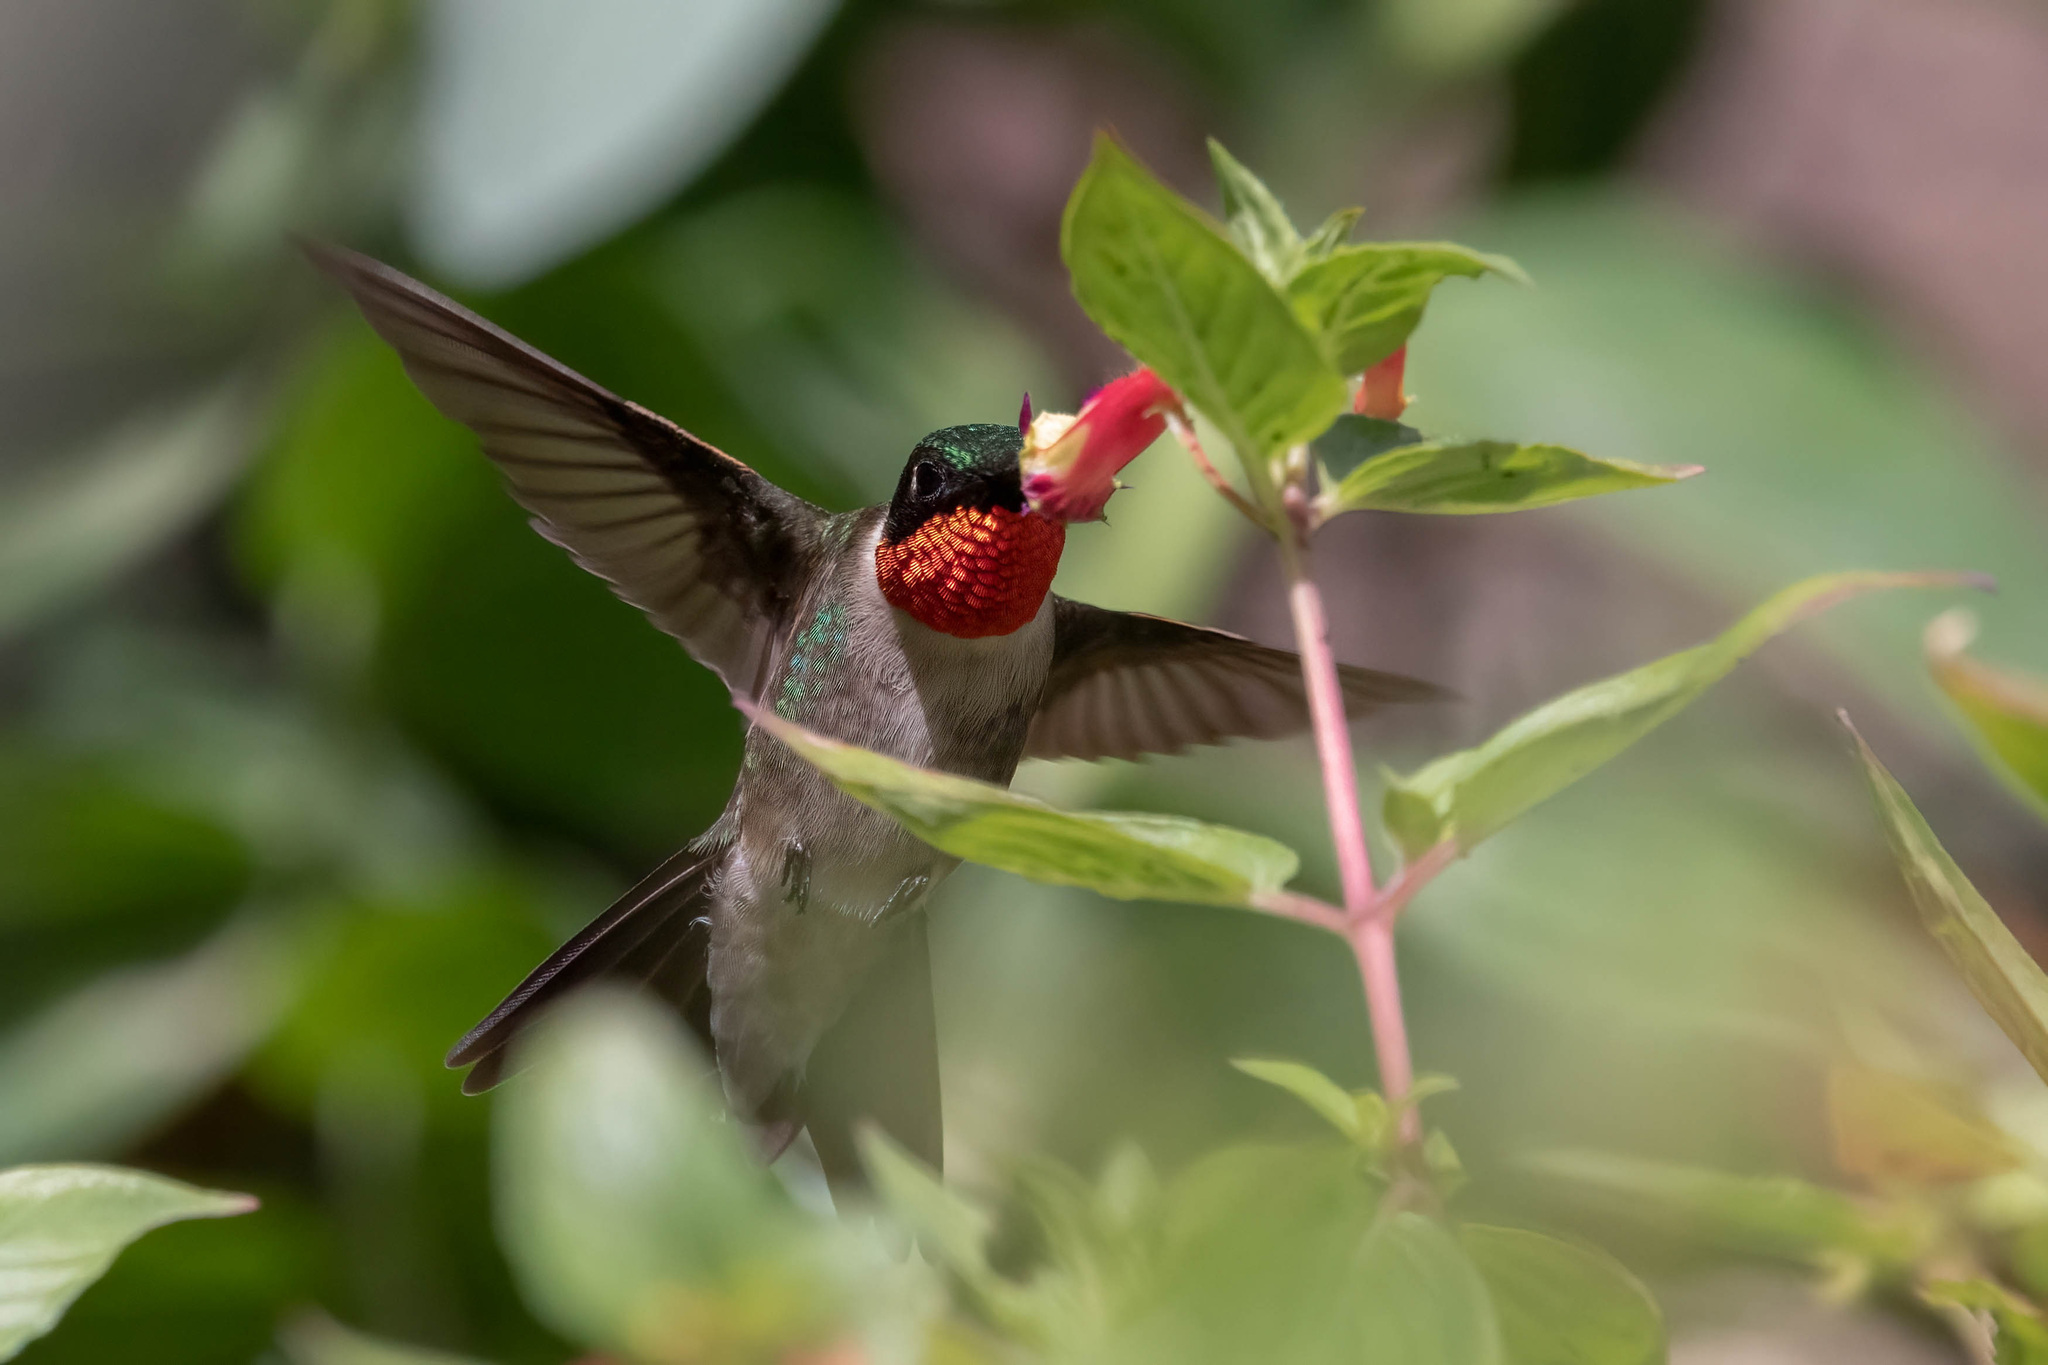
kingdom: Animalia
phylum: Chordata
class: Aves
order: Apodiformes
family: Trochilidae
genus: Archilochus
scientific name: Archilochus colubris
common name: Ruby-throated hummingbird
